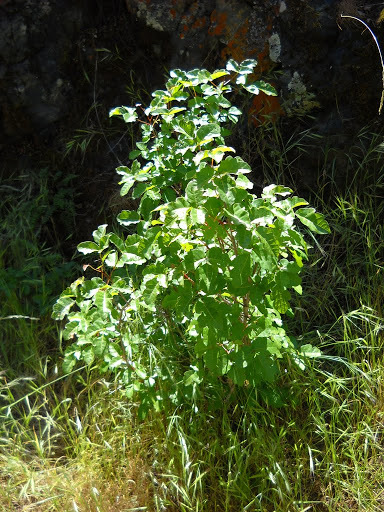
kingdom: Plantae
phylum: Tracheophyta
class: Magnoliopsida
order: Sapindales
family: Anacardiaceae
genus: Toxicodendron
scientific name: Toxicodendron diversilobum
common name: Pacific poison-oak
